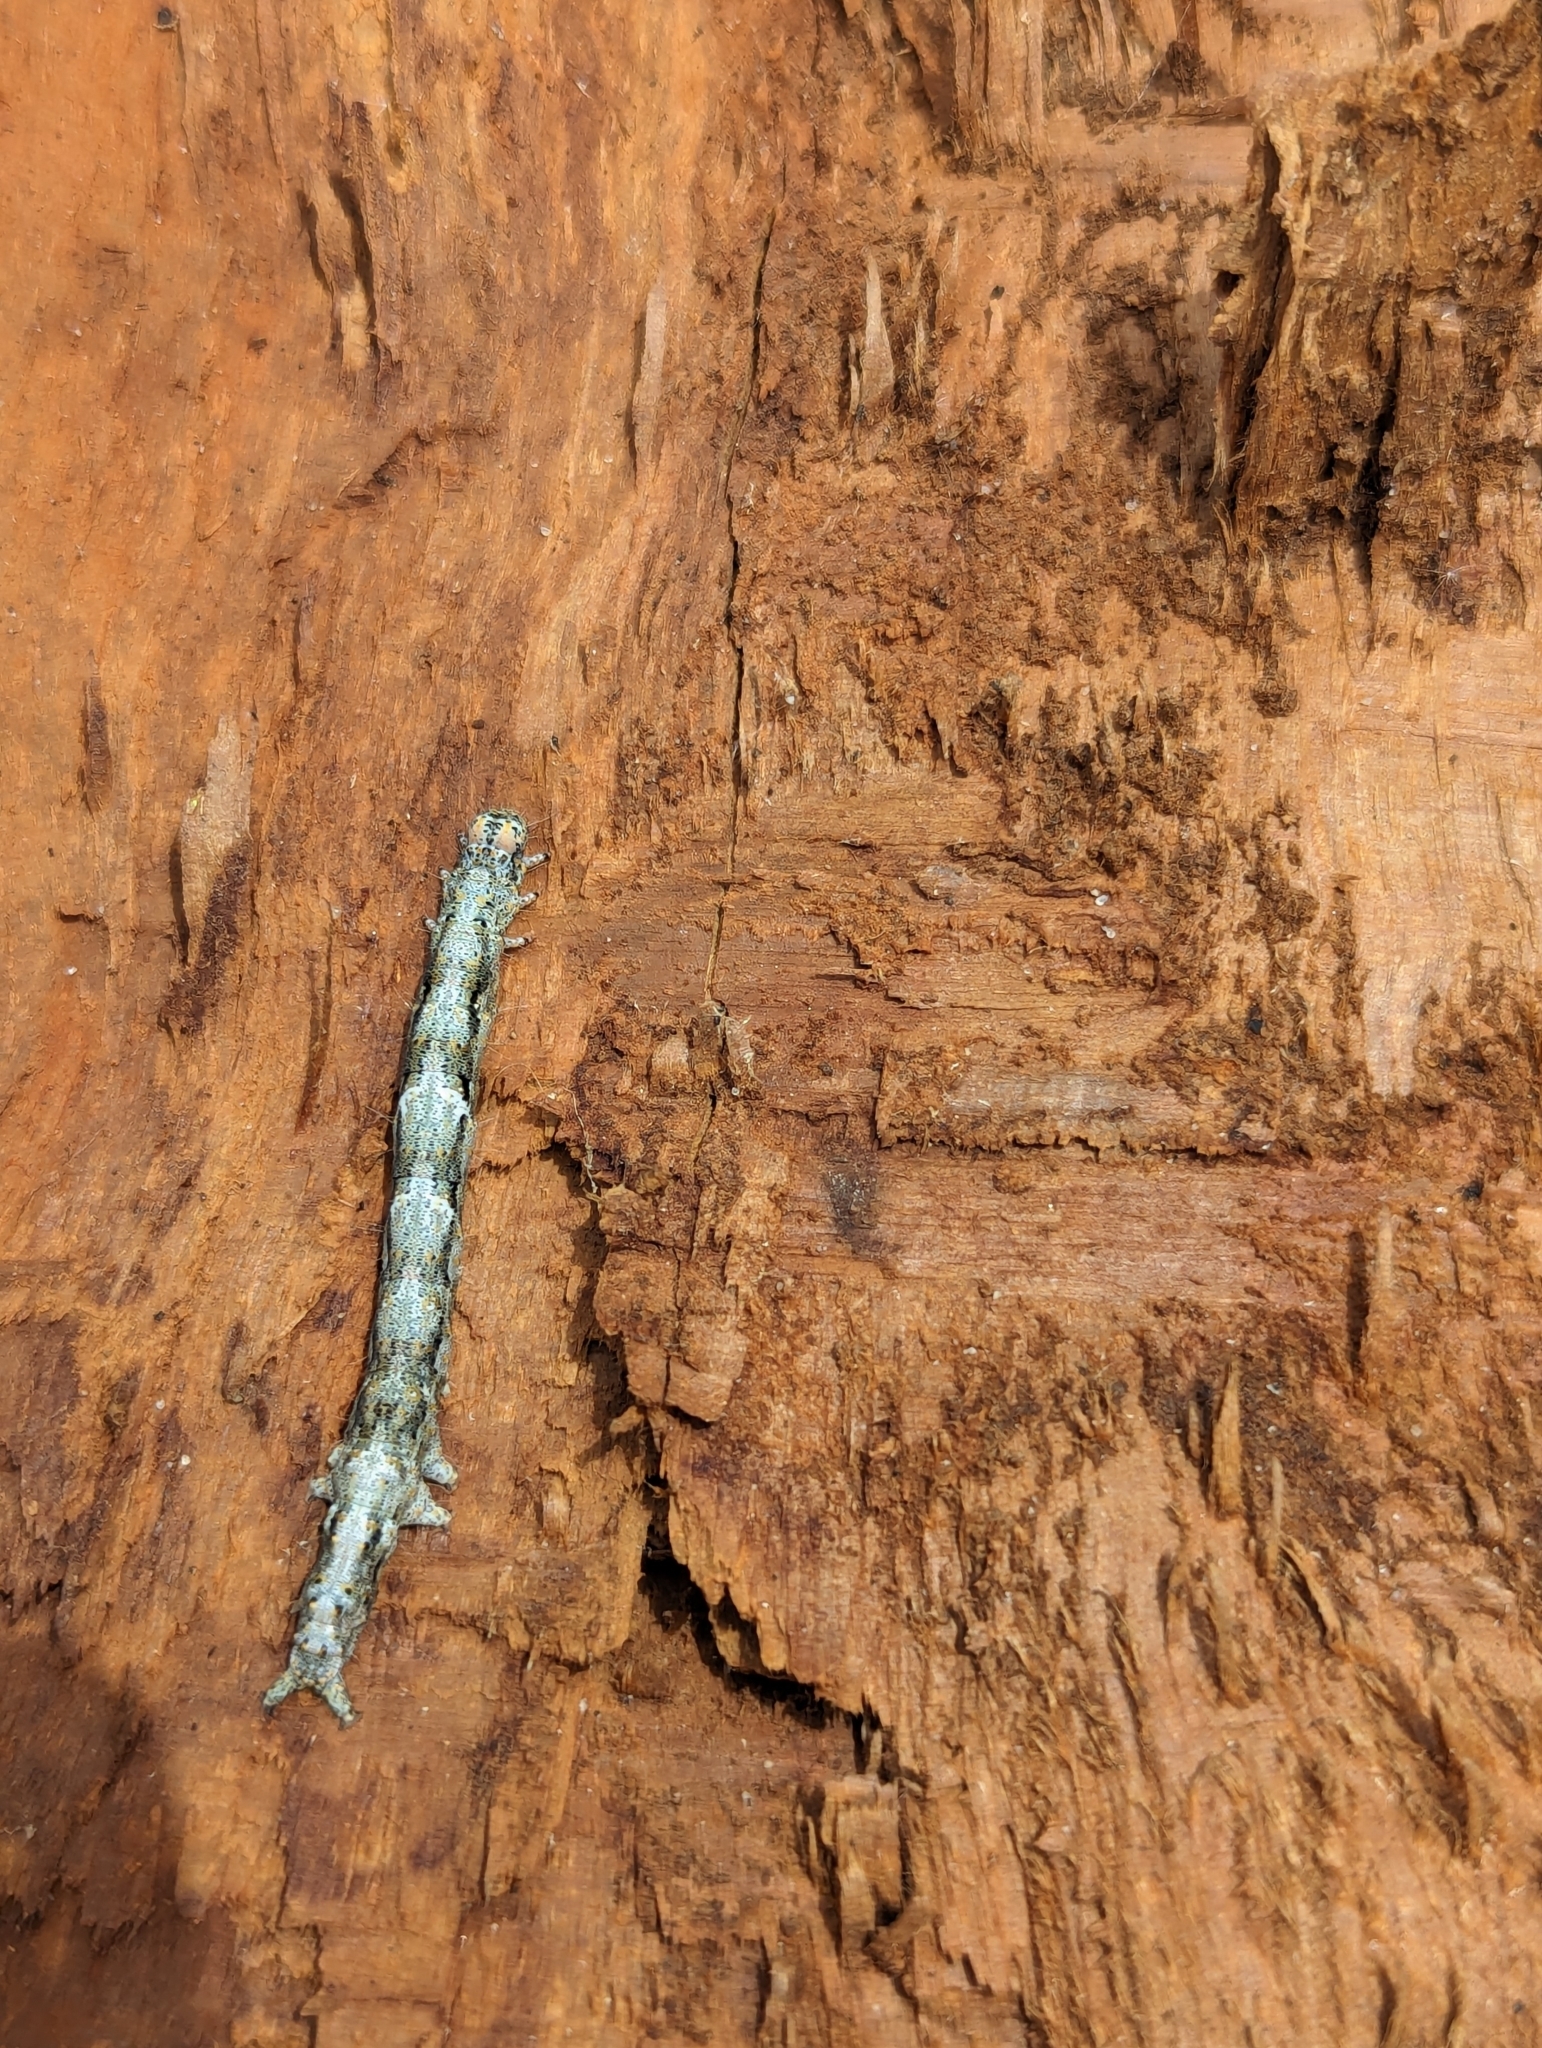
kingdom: Animalia
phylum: Arthropoda
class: Insecta
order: Lepidoptera
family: Erebidae
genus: Metria
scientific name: Metria amella
